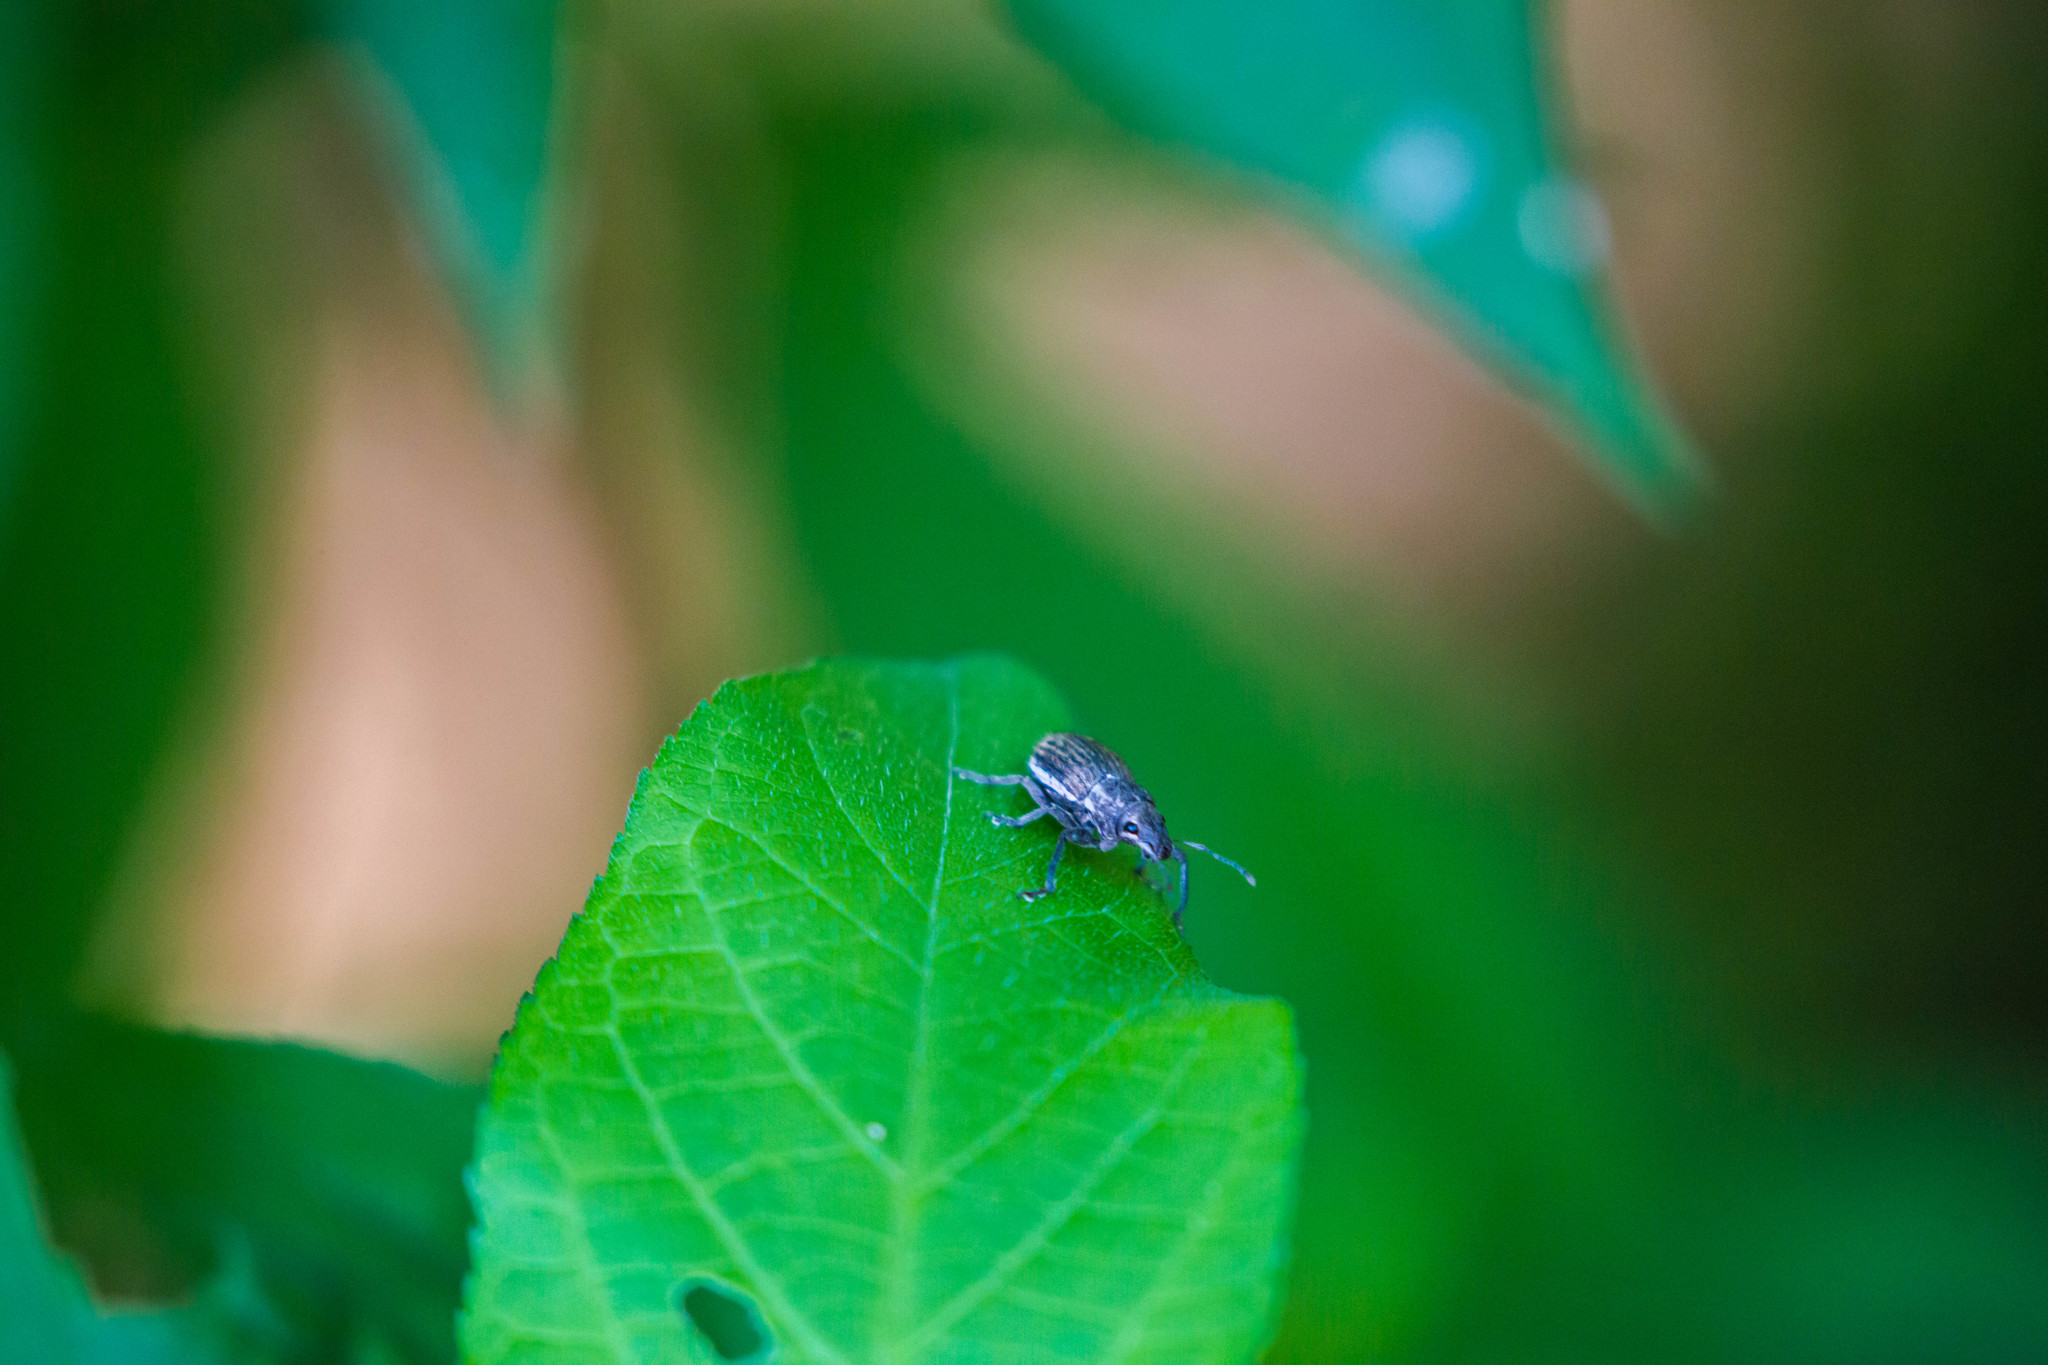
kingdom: Animalia
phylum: Arthropoda
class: Insecta
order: Coleoptera
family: Curculionidae
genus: Naupactus
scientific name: Naupactus leucoloma
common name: Whitefringed beetle
